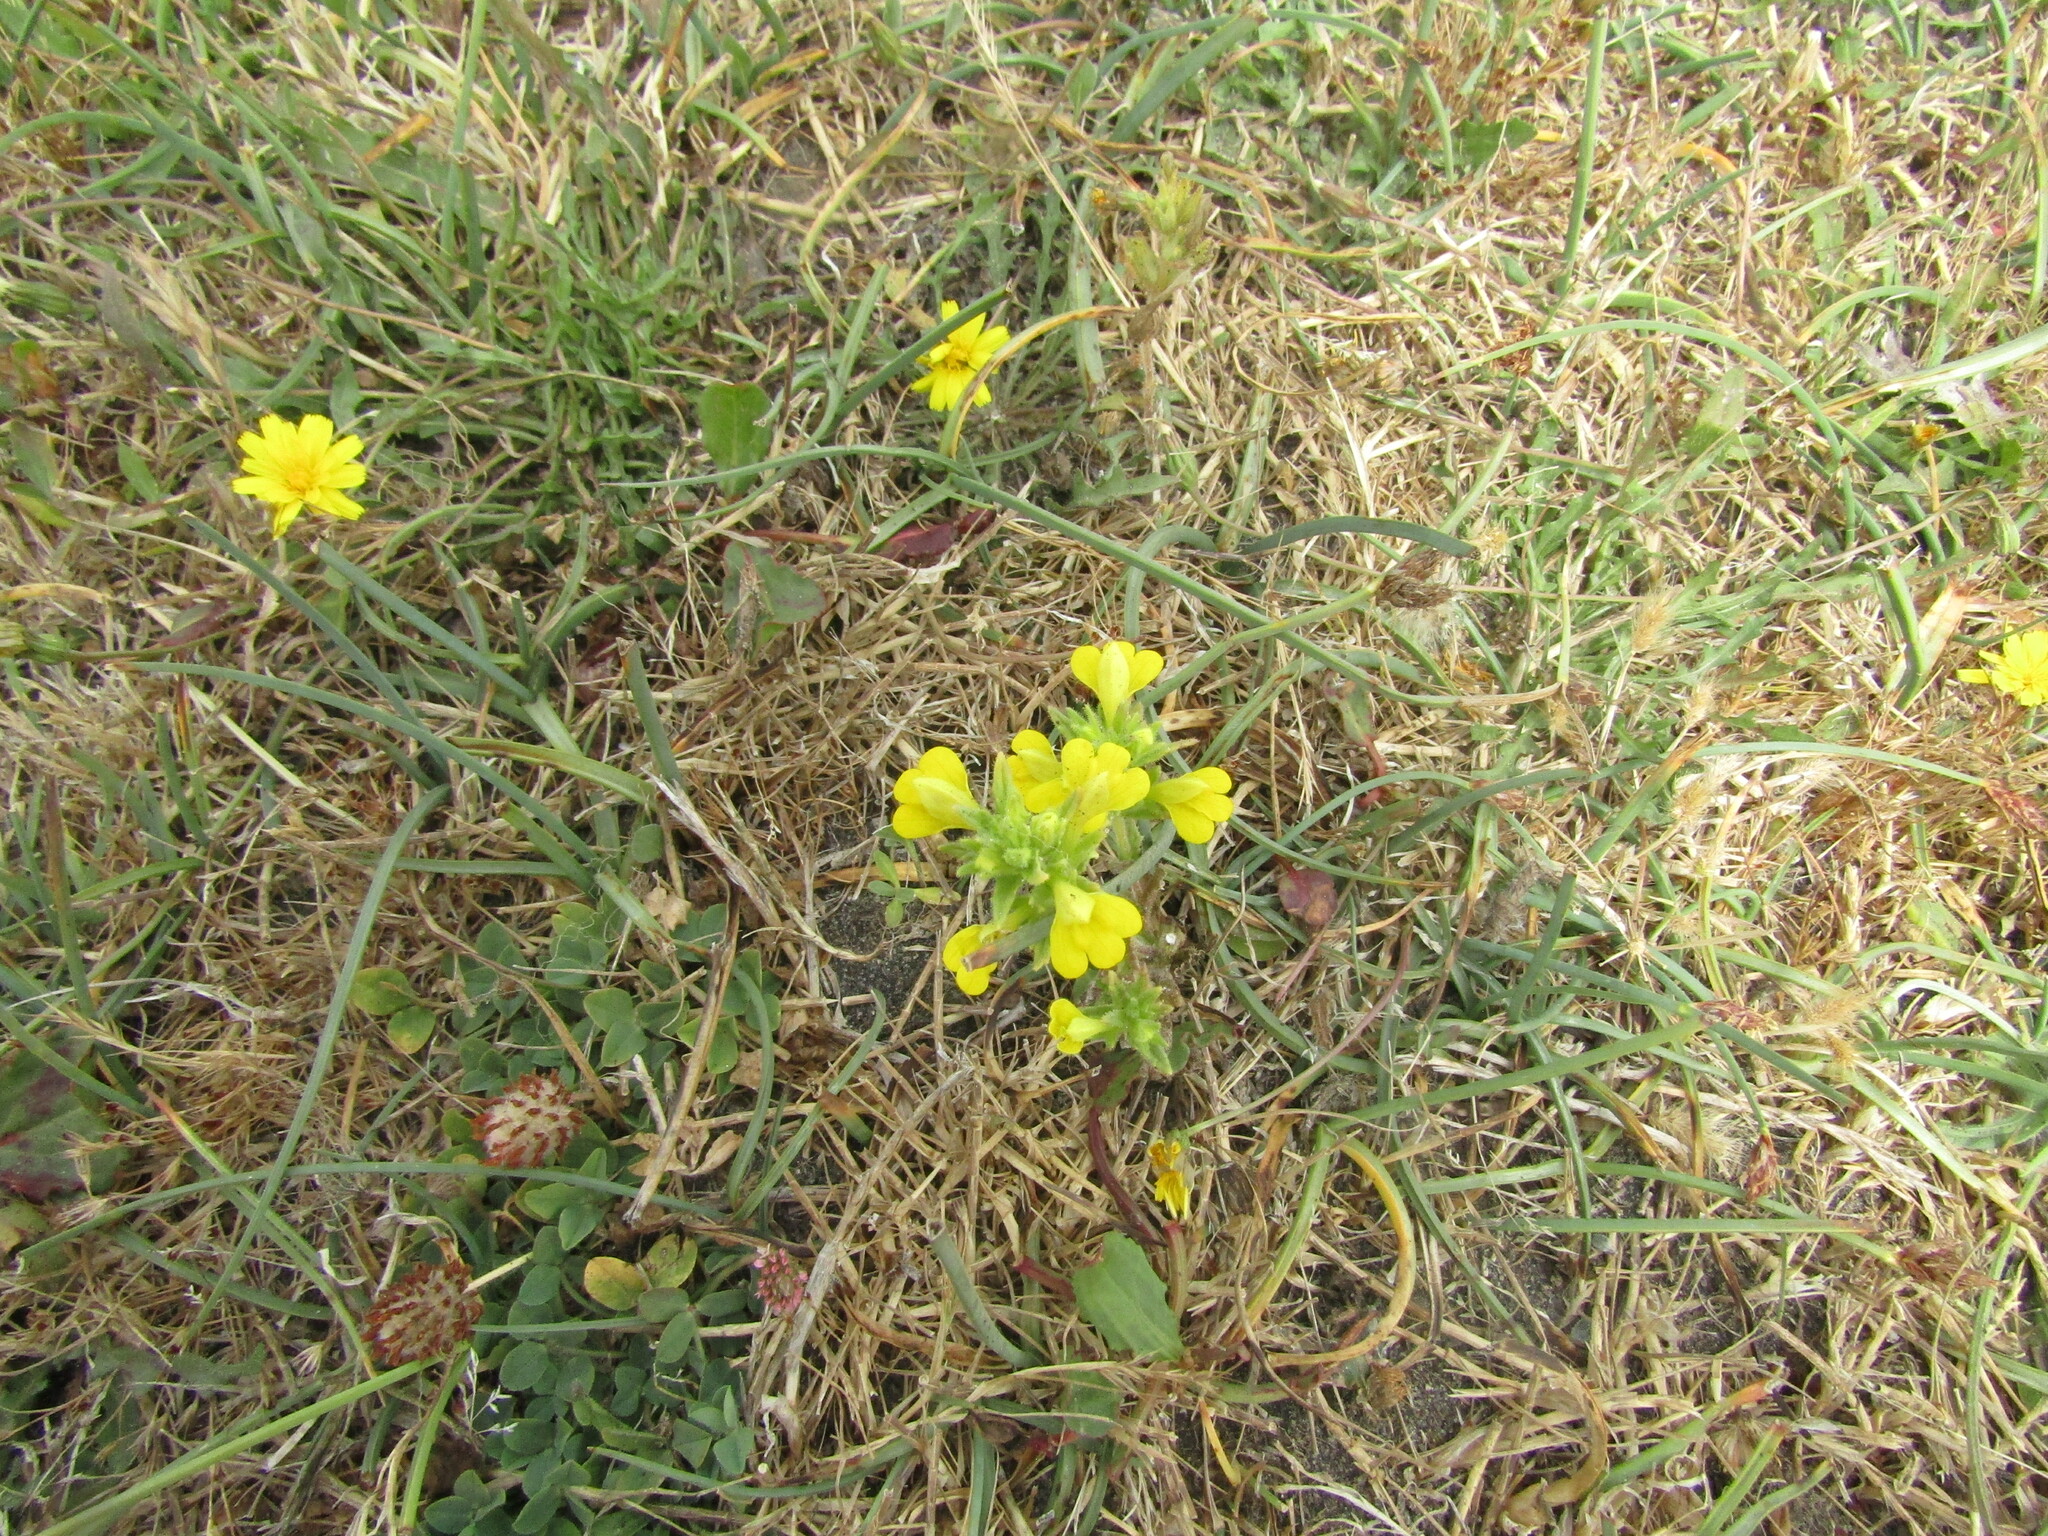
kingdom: Plantae
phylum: Tracheophyta
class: Magnoliopsida
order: Lamiales
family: Orobanchaceae
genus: Bellardia
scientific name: Bellardia viscosa
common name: Sticky parentucellia
